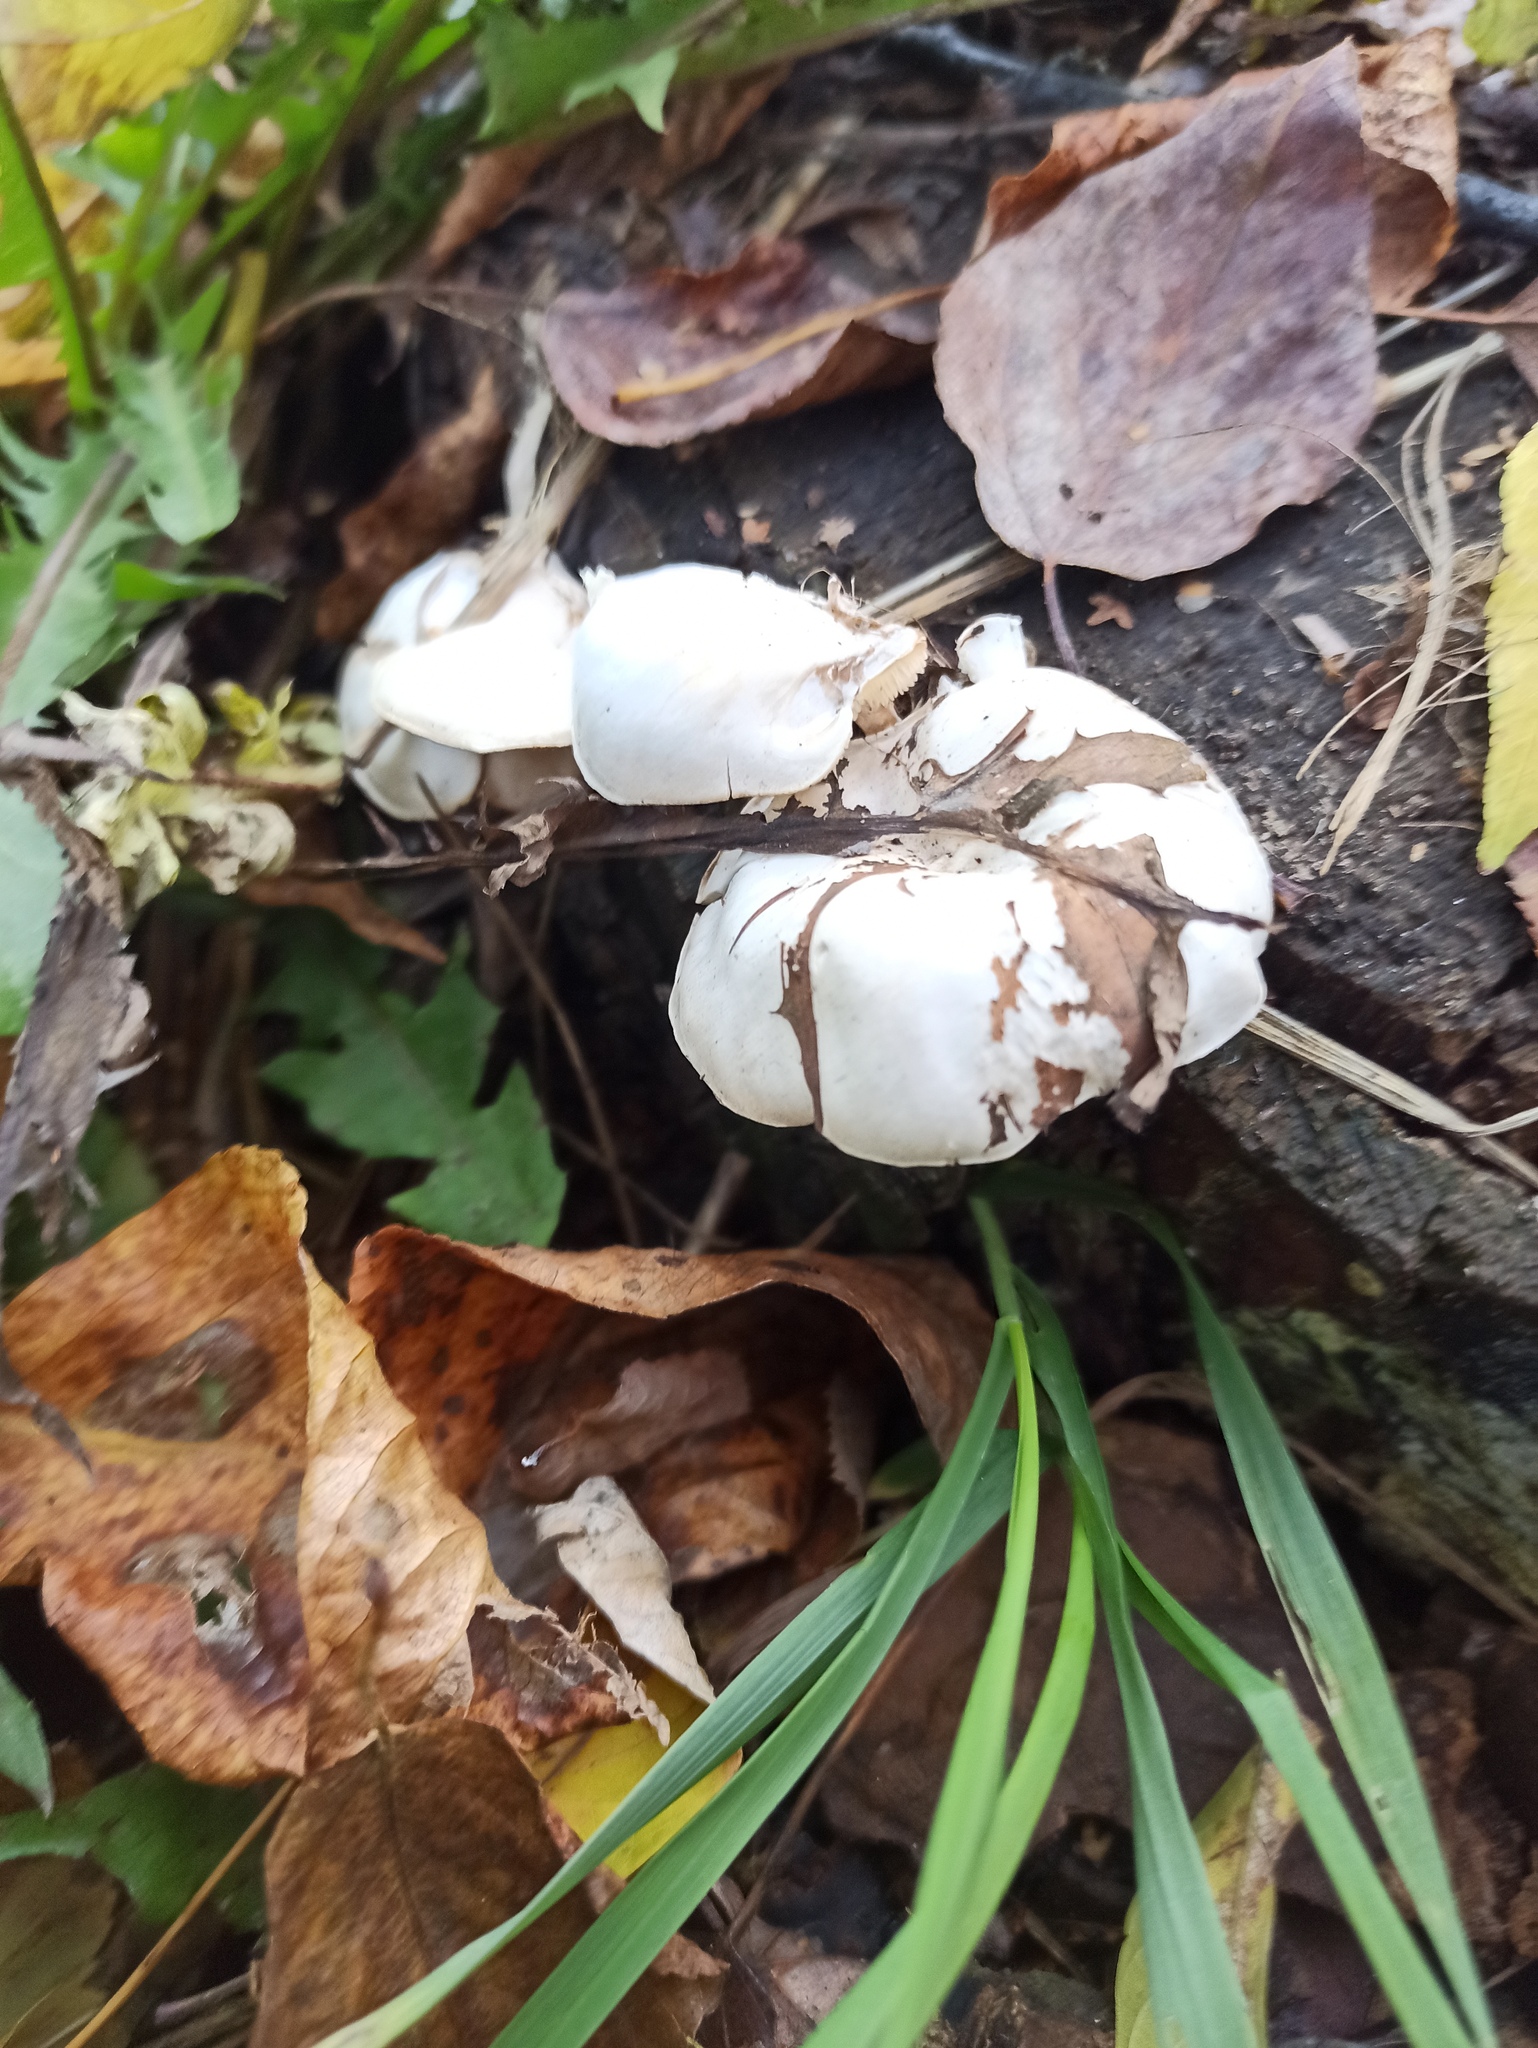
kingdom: Fungi
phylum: Basidiomycota
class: Agaricomycetes
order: Agaricales
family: Tricholomataceae
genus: Clitocybe
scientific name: Clitocybe truncicola
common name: Trunk funnel
